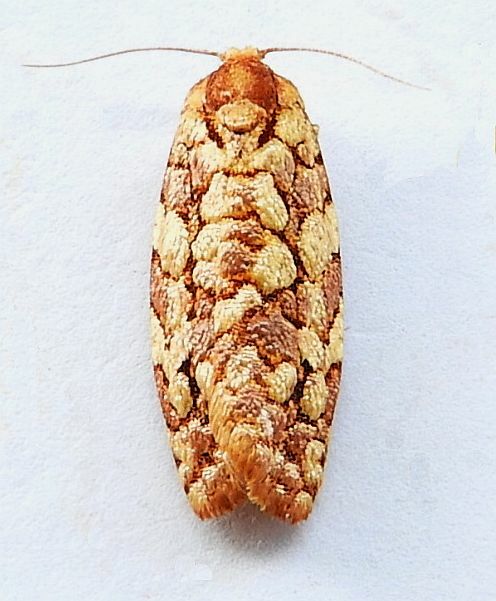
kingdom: Animalia
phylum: Arthropoda
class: Insecta
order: Lepidoptera
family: Tortricidae
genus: Choristoneura
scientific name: Choristoneura houstonana
